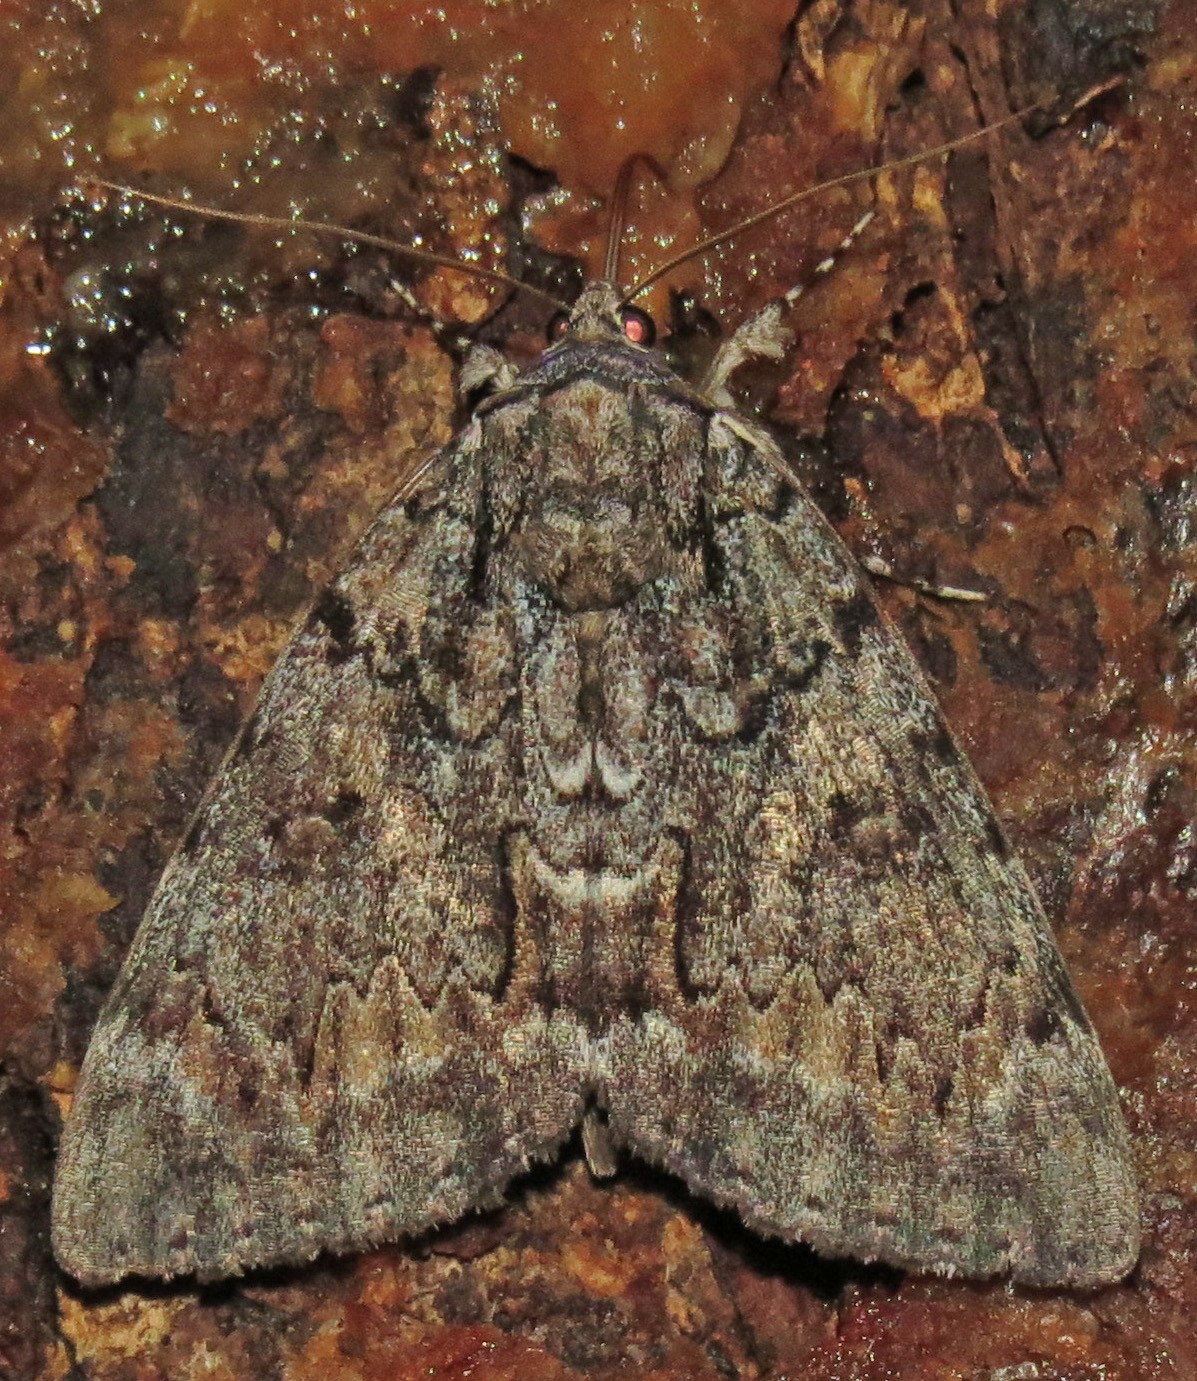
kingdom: Animalia
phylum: Arthropoda
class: Insecta
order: Lepidoptera
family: Erebidae
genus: Catocala
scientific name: Catocala palaeogama
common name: Oldwife underwing
